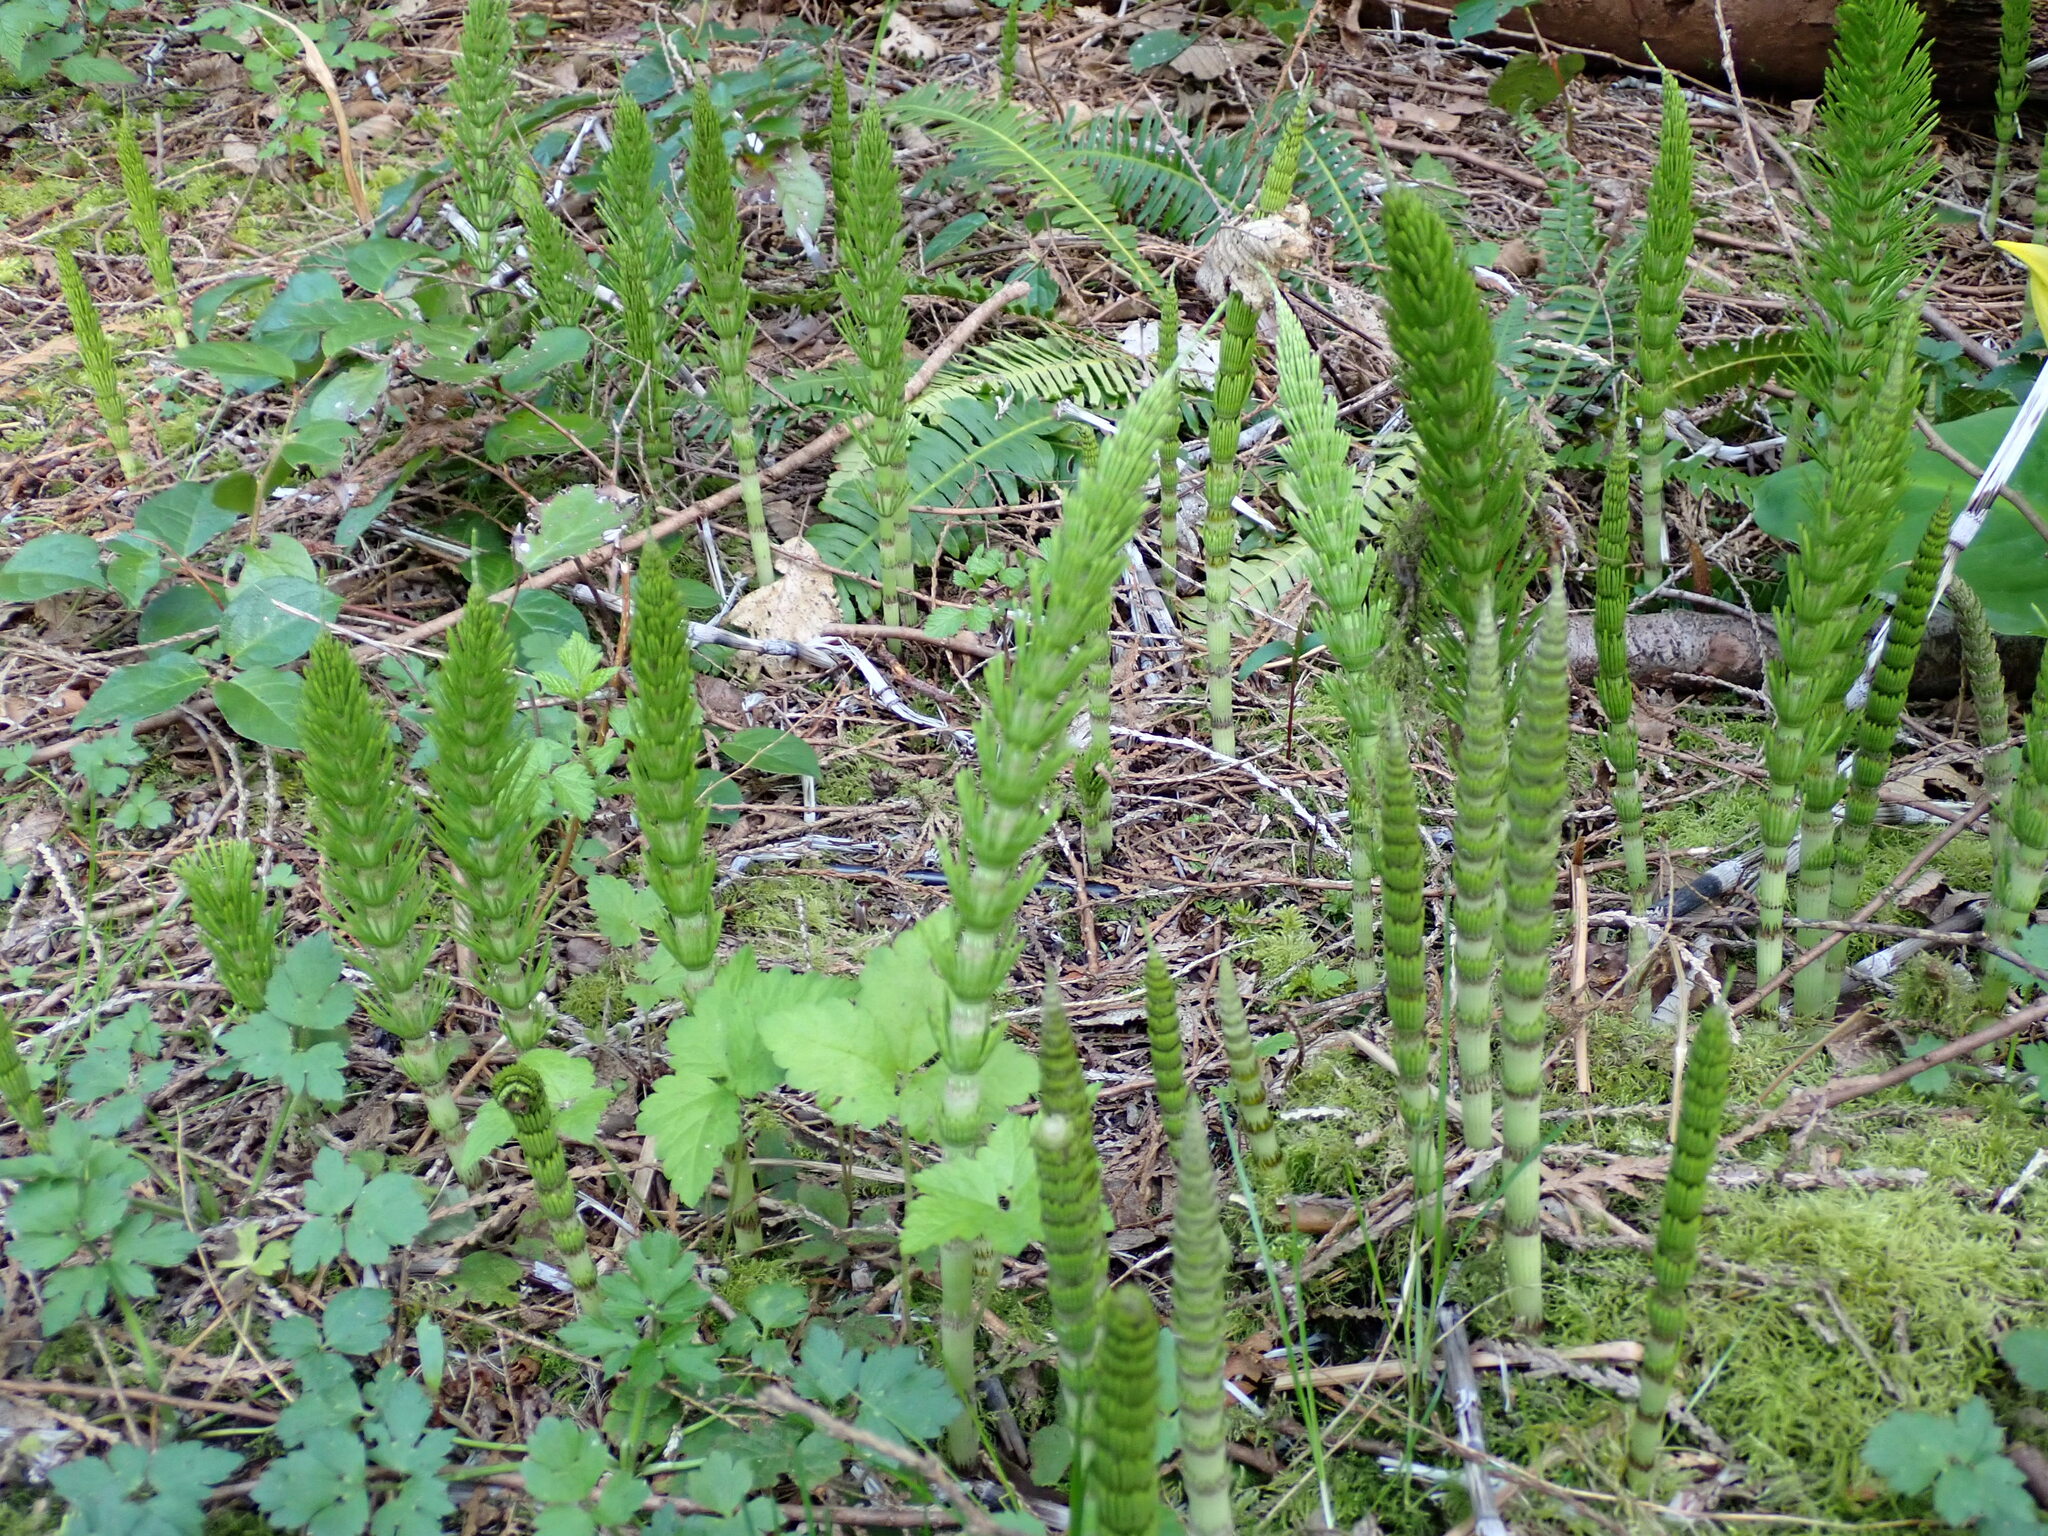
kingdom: Plantae
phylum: Tracheophyta
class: Polypodiopsida
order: Equisetales
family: Equisetaceae
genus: Equisetum
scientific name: Equisetum braunii
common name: Braun's horsetail
